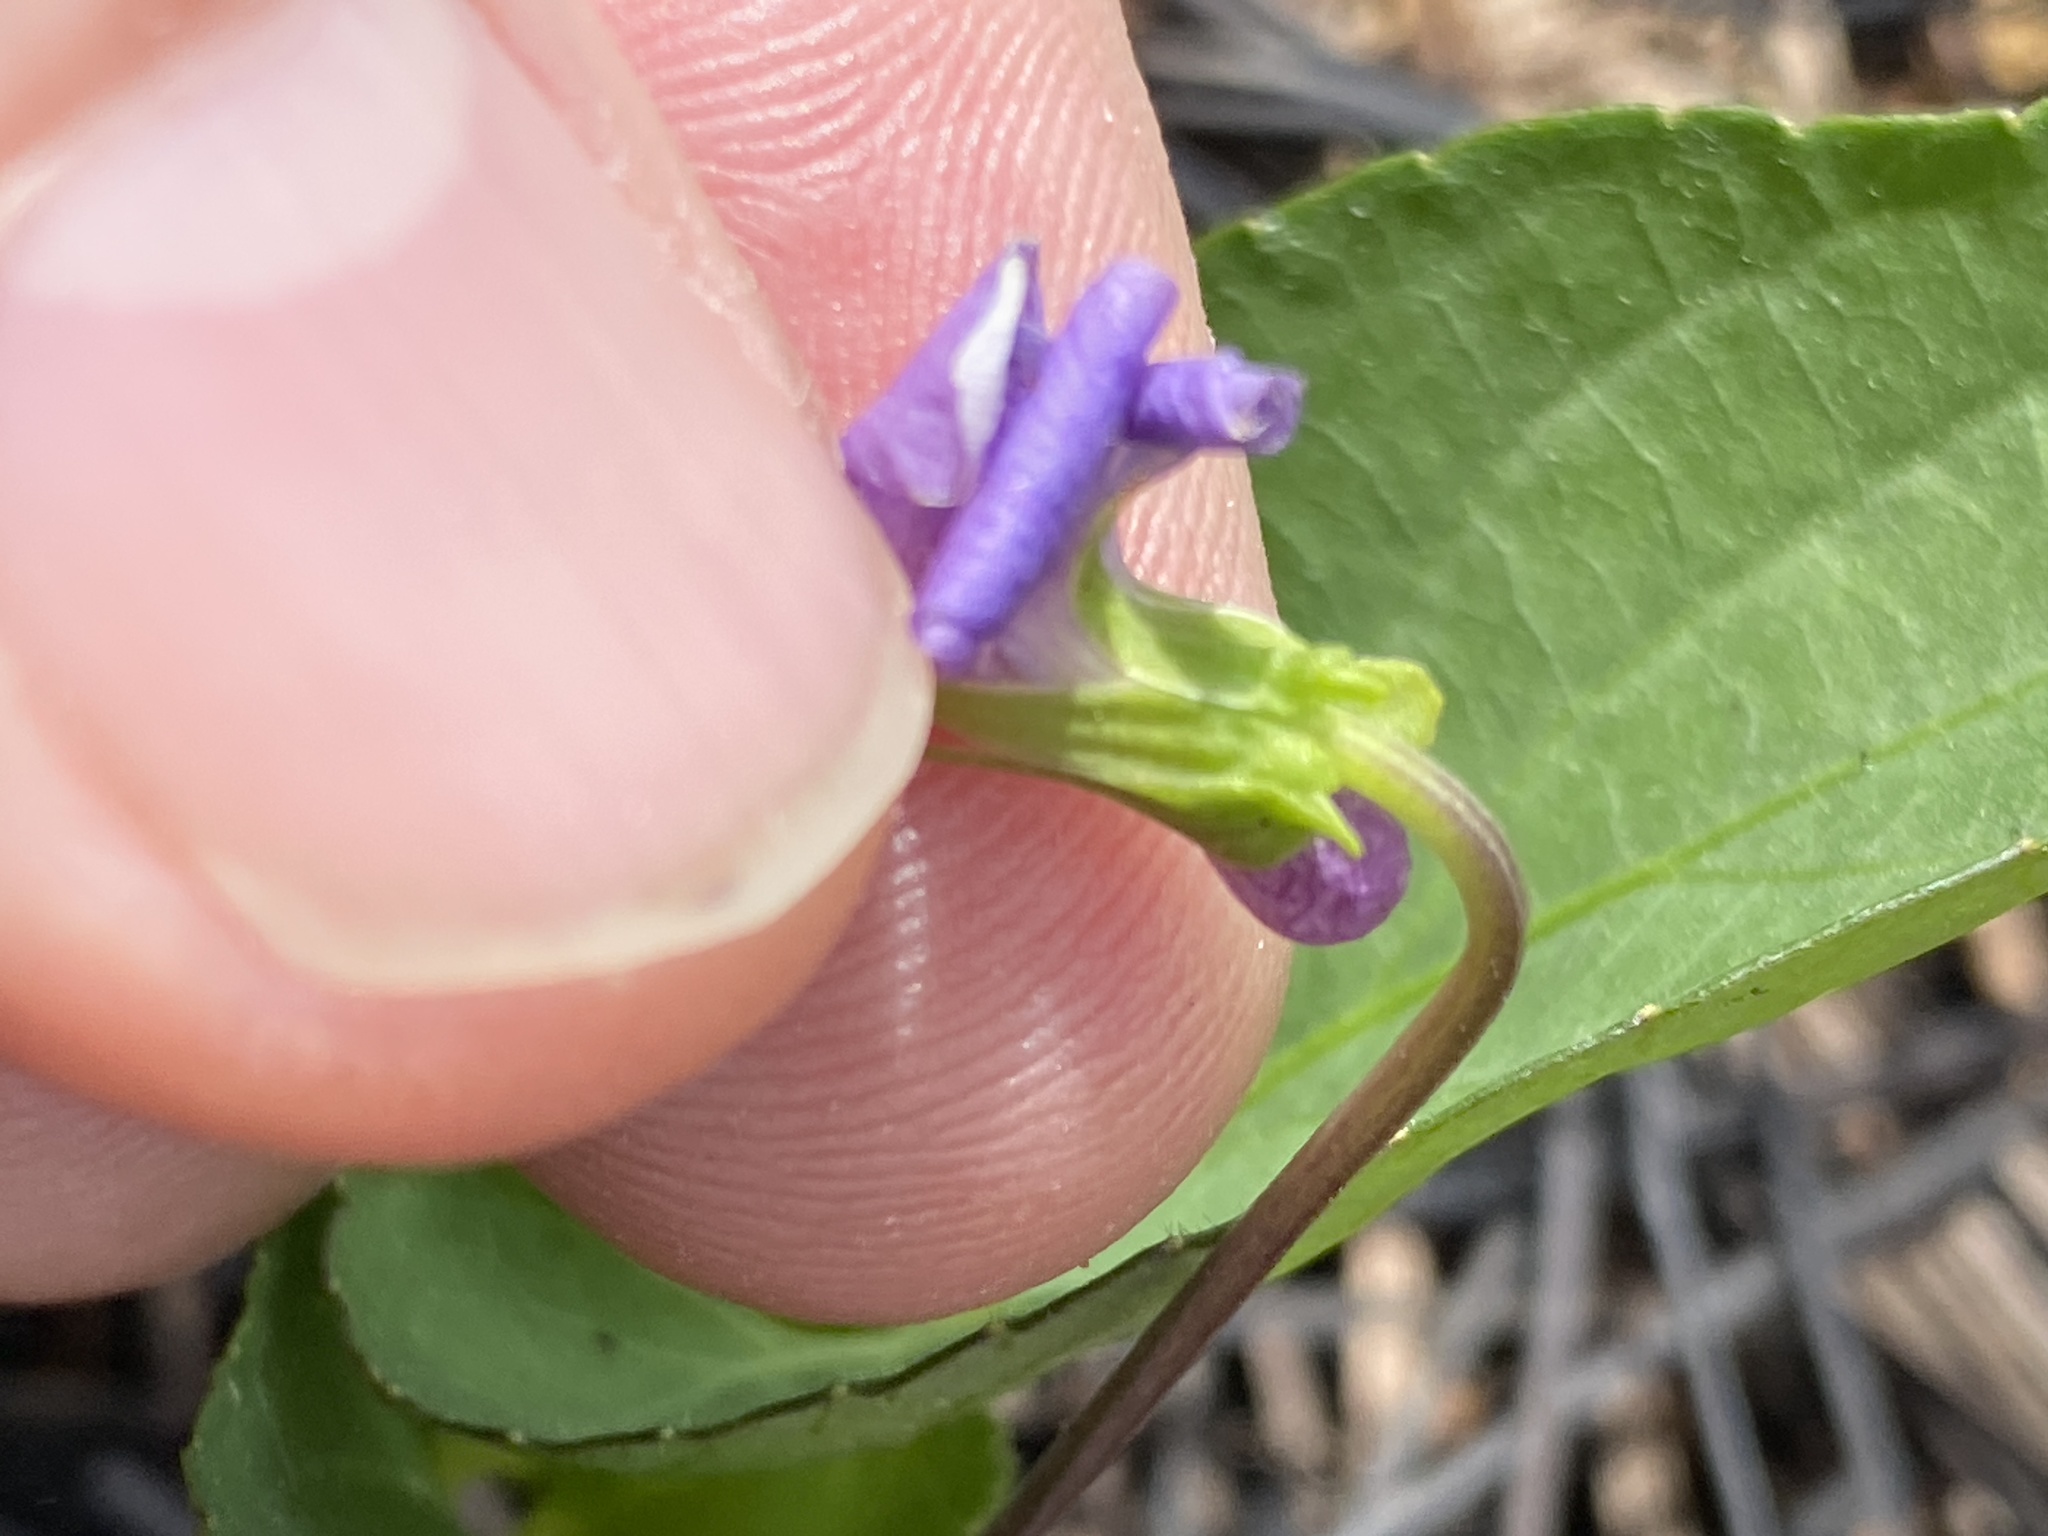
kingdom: Plantae
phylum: Tracheophyta
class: Magnoliopsida
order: Malpighiales
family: Violaceae
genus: Viola
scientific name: Viola sagittata
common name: Arrowhead violet
